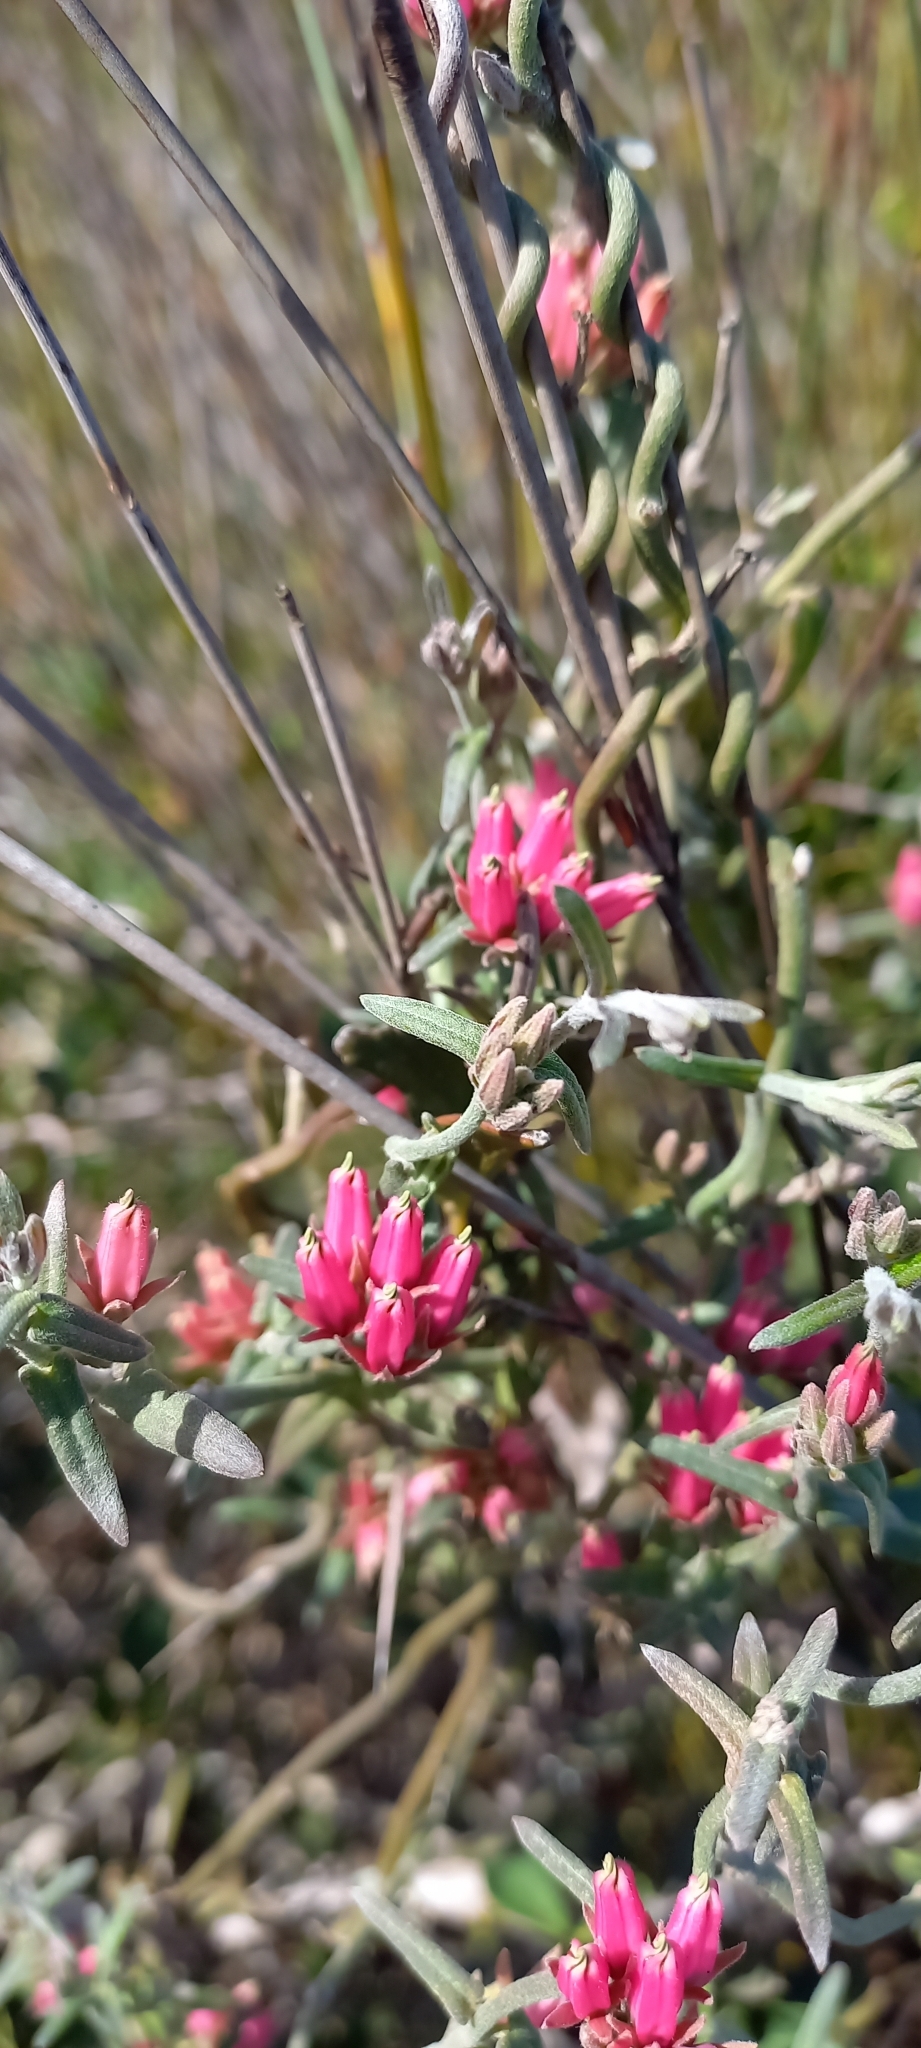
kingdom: Plantae
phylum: Tracheophyta
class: Magnoliopsida
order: Gentianales
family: Apocynaceae
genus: Microloma
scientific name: Microloma sagittatum
